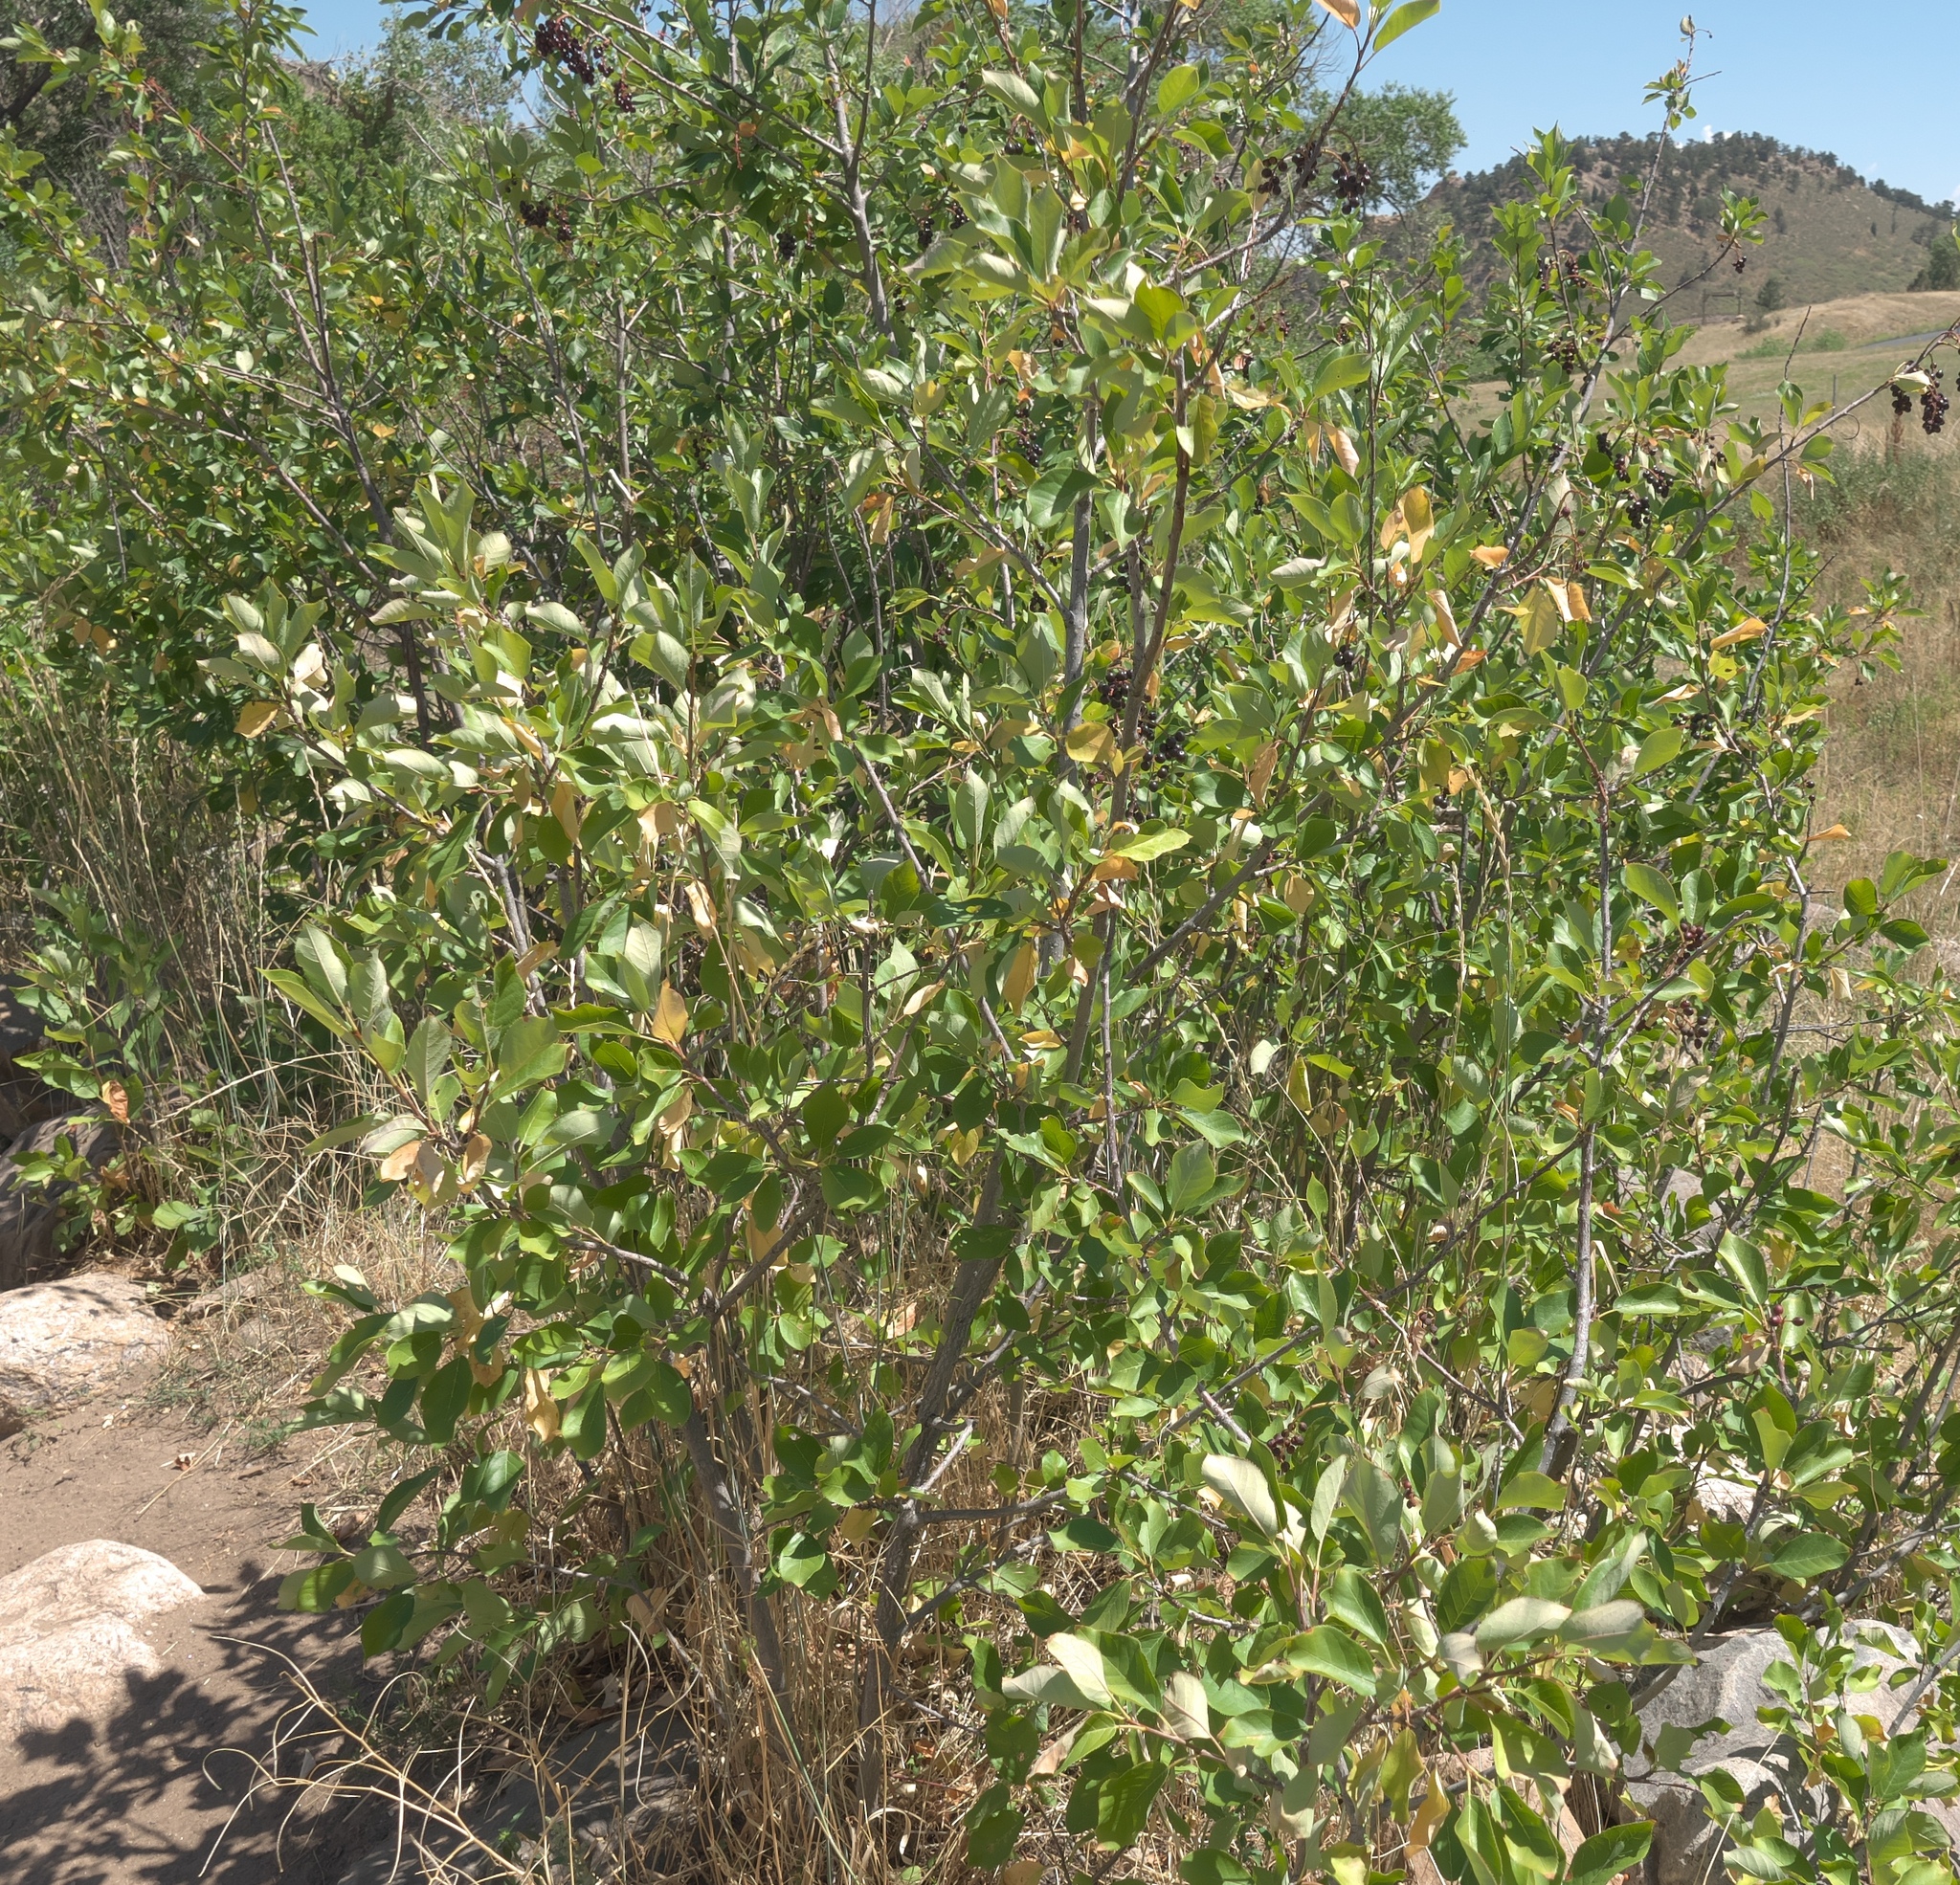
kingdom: Plantae
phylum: Tracheophyta
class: Magnoliopsida
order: Rosales
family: Rosaceae
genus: Prunus
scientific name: Prunus virginiana
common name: Chokecherry
